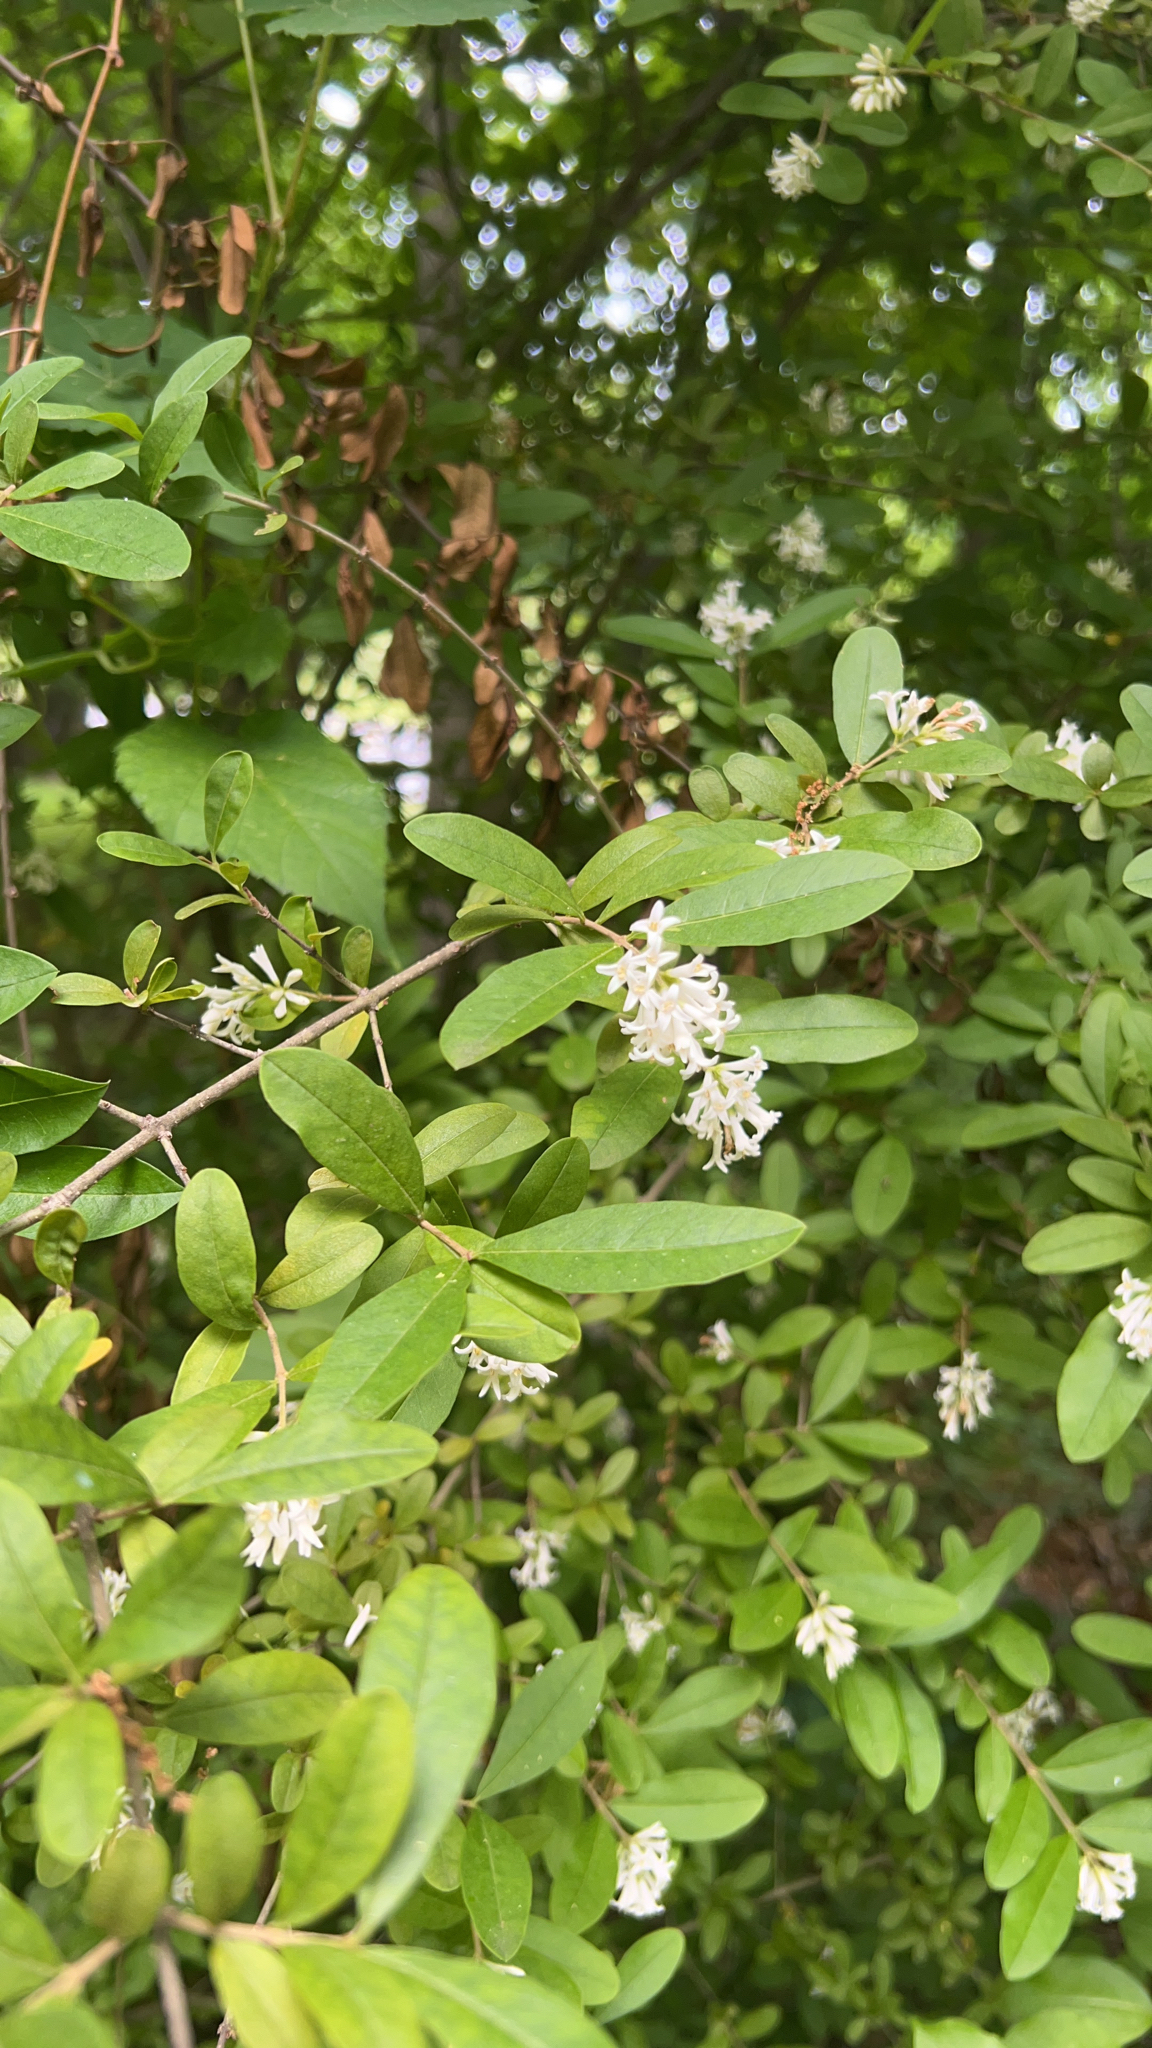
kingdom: Plantae
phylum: Tracheophyta
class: Magnoliopsida
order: Lamiales
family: Oleaceae
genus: Ligustrum
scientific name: Ligustrum obtusifolium
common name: Border privet
